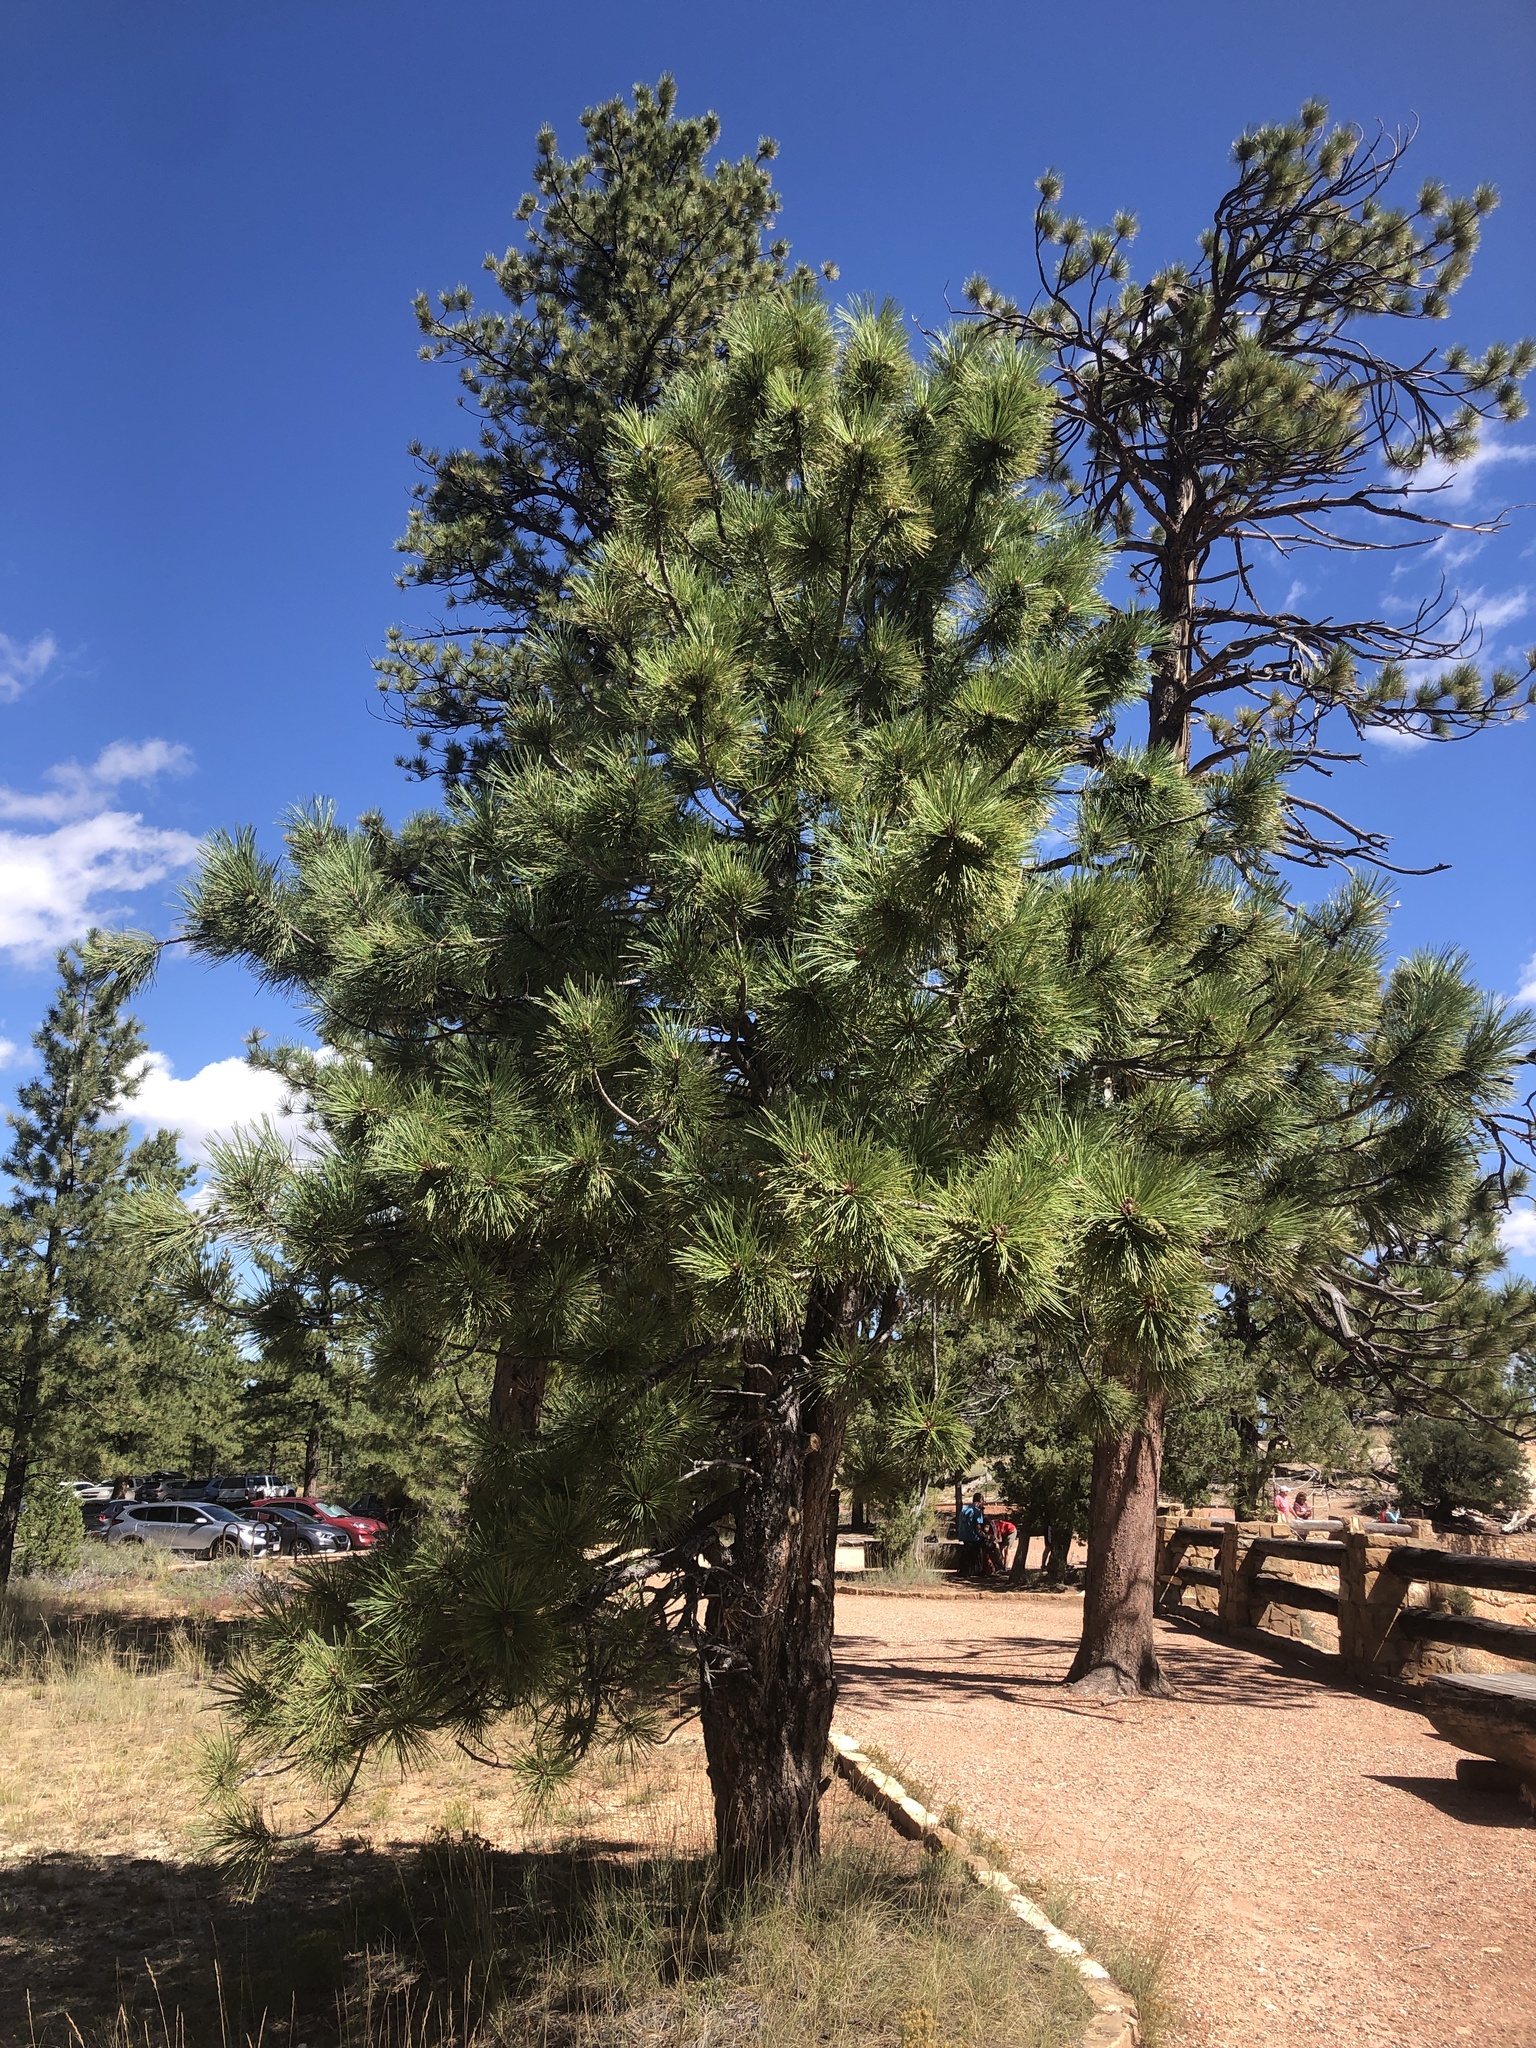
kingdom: Plantae
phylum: Tracheophyta
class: Pinopsida
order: Pinales
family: Pinaceae
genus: Pinus
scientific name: Pinus ponderosa
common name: Western yellow-pine
